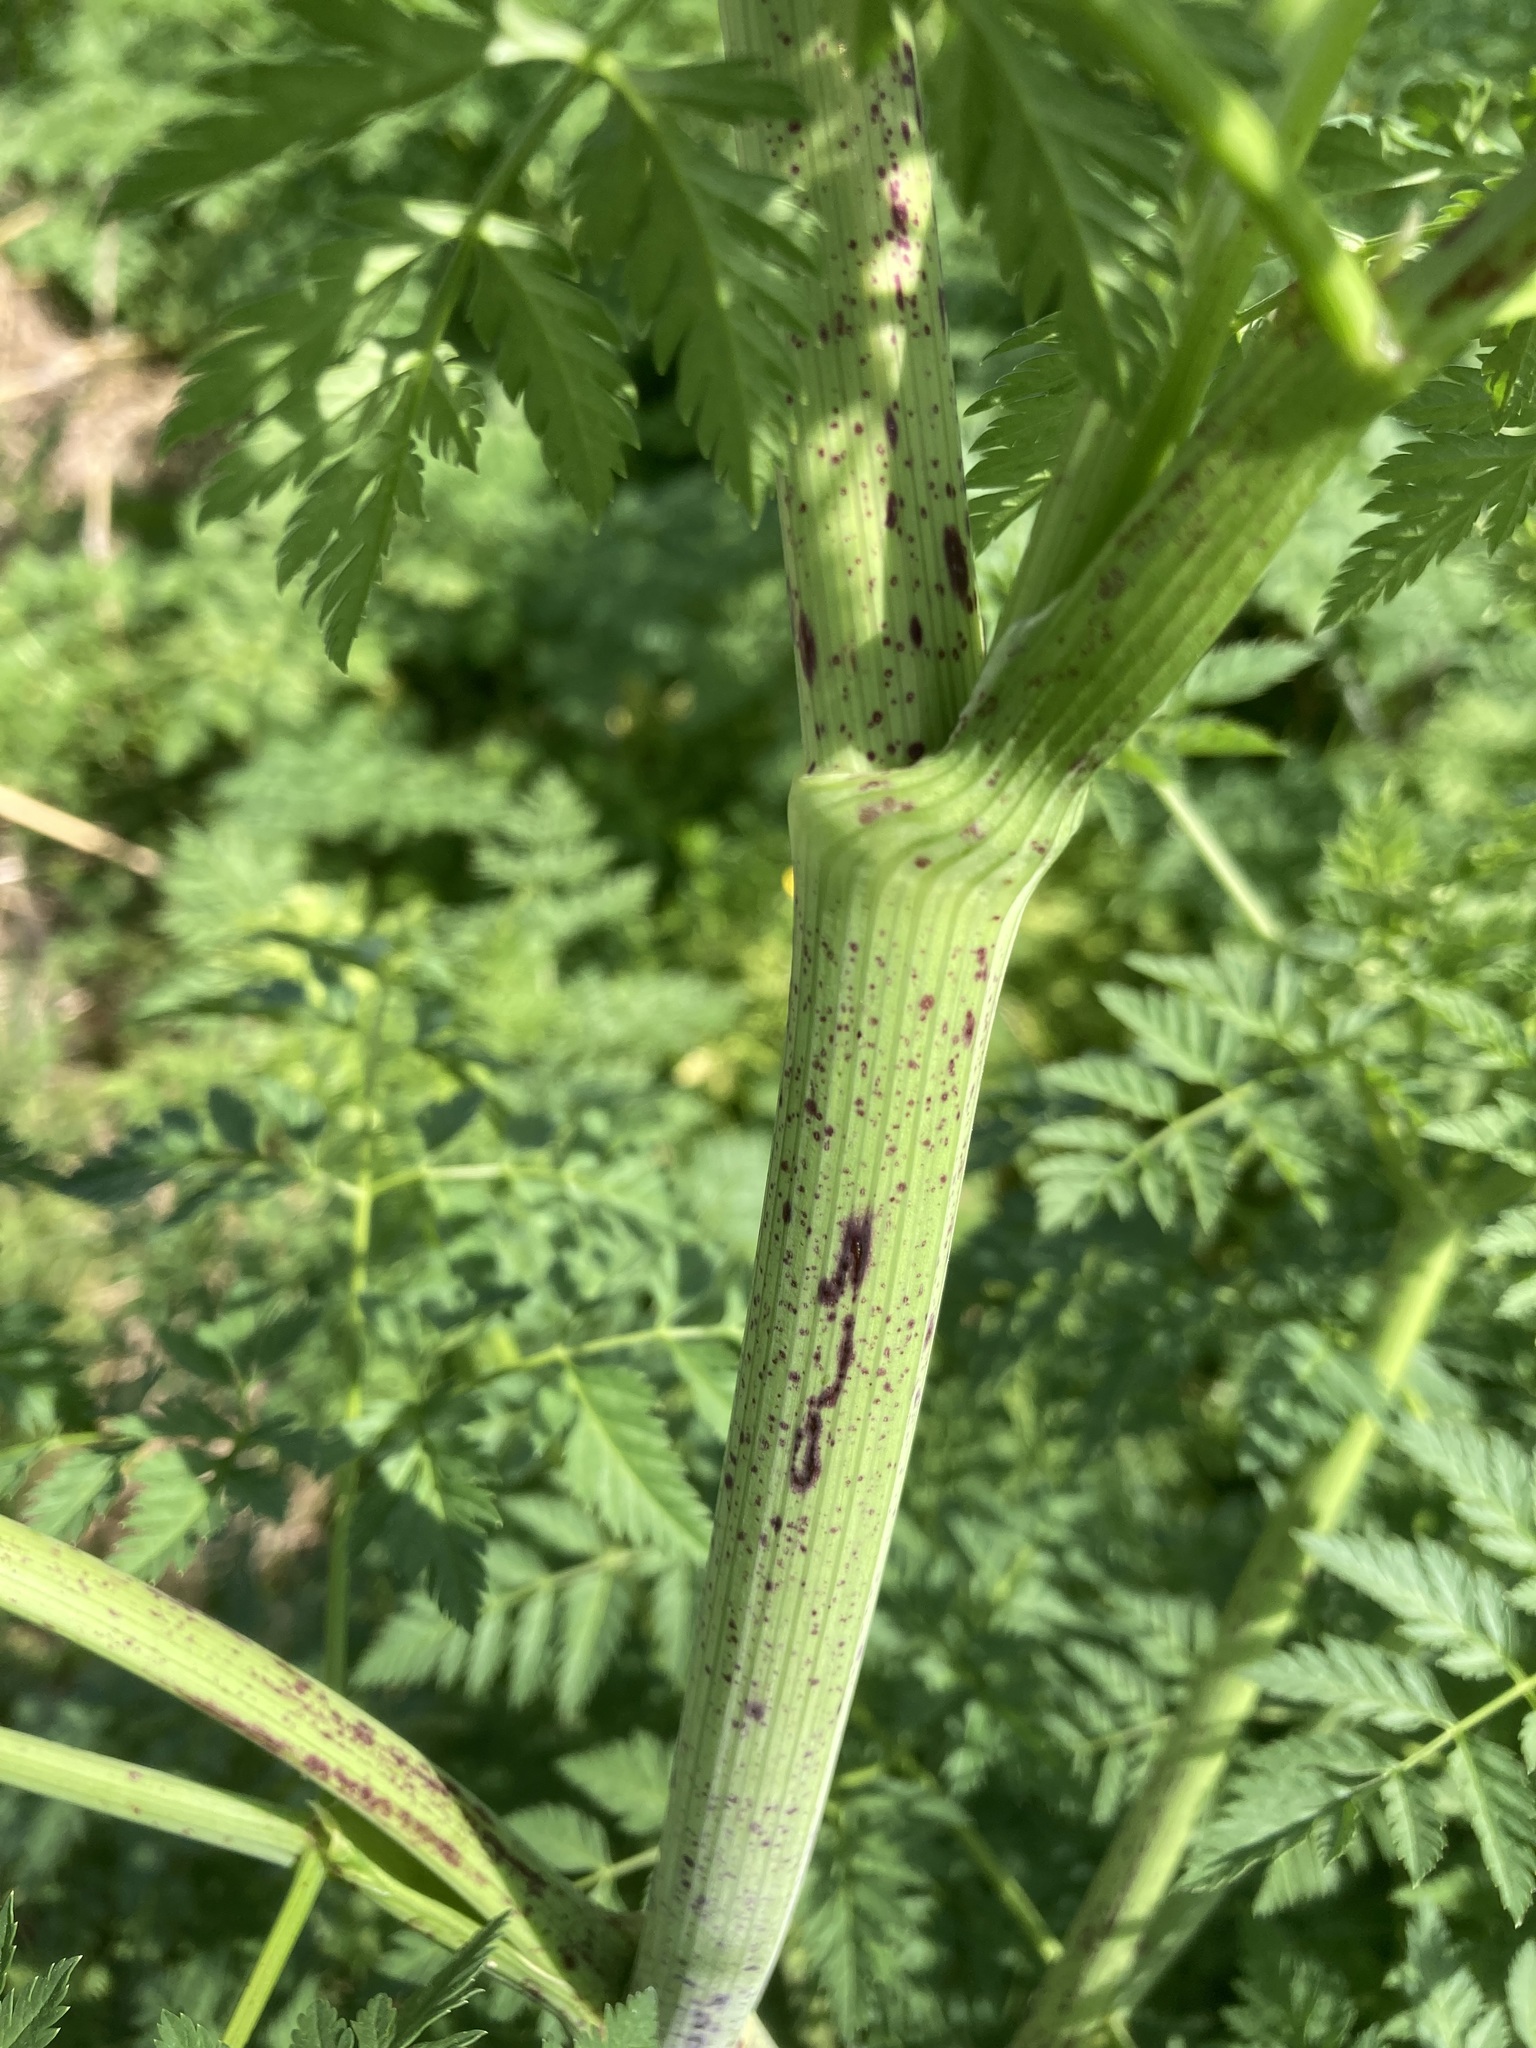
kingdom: Plantae
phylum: Tracheophyta
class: Magnoliopsida
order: Apiales
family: Apiaceae
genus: Conium
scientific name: Conium maculatum
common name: Hemlock
